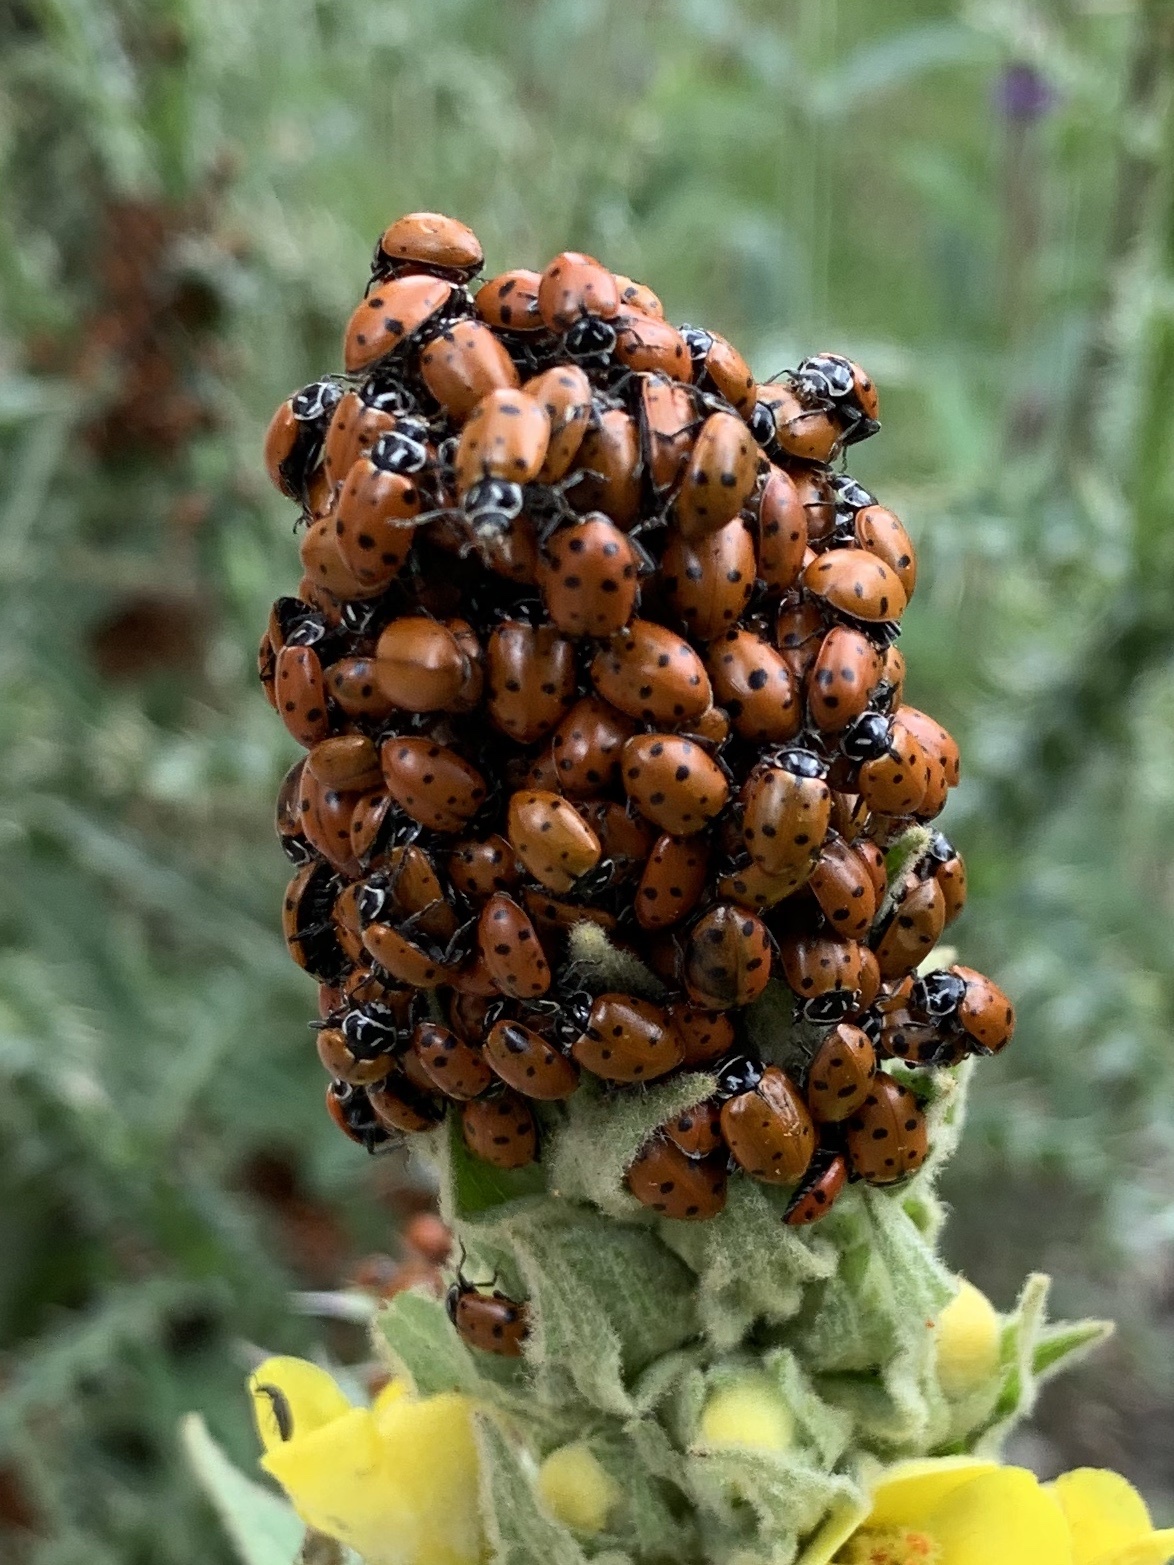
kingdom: Animalia
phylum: Arthropoda
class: Insecta
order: Coleoptera
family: Coccinellidae
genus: Hippodamia
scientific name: Hippodamia convergens
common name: Convergent lady beetle
